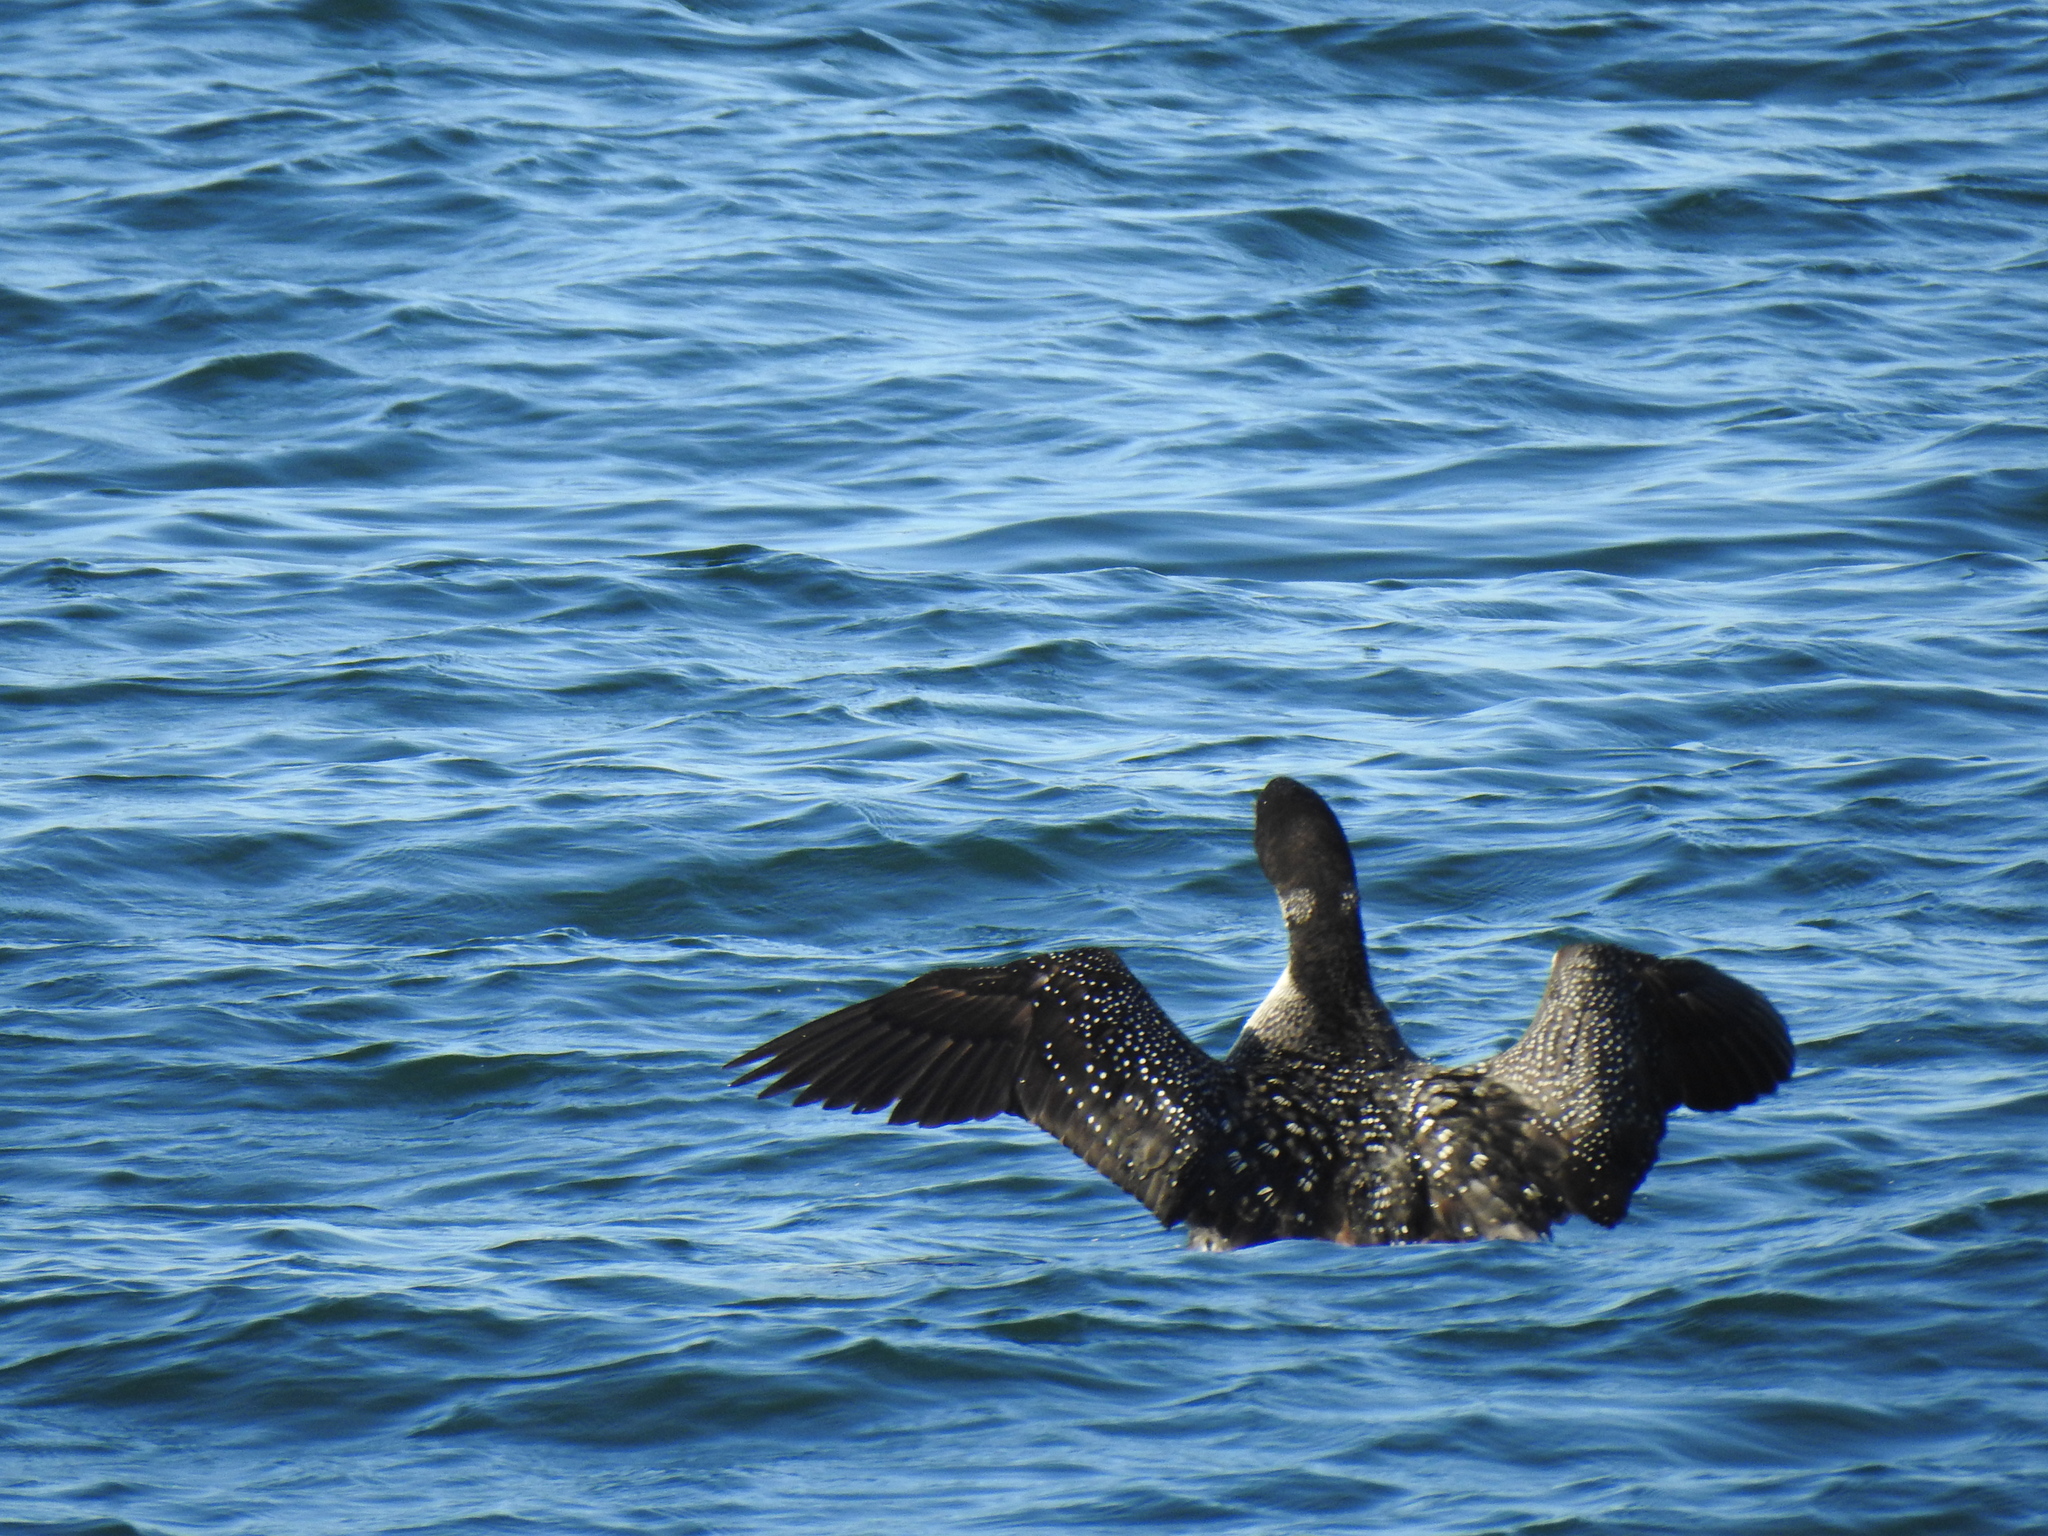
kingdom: Animalia
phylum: Chordata
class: Aves
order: Gaviiformes
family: Gaviidae
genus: Gavia
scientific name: Gavia immer
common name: Common loon
